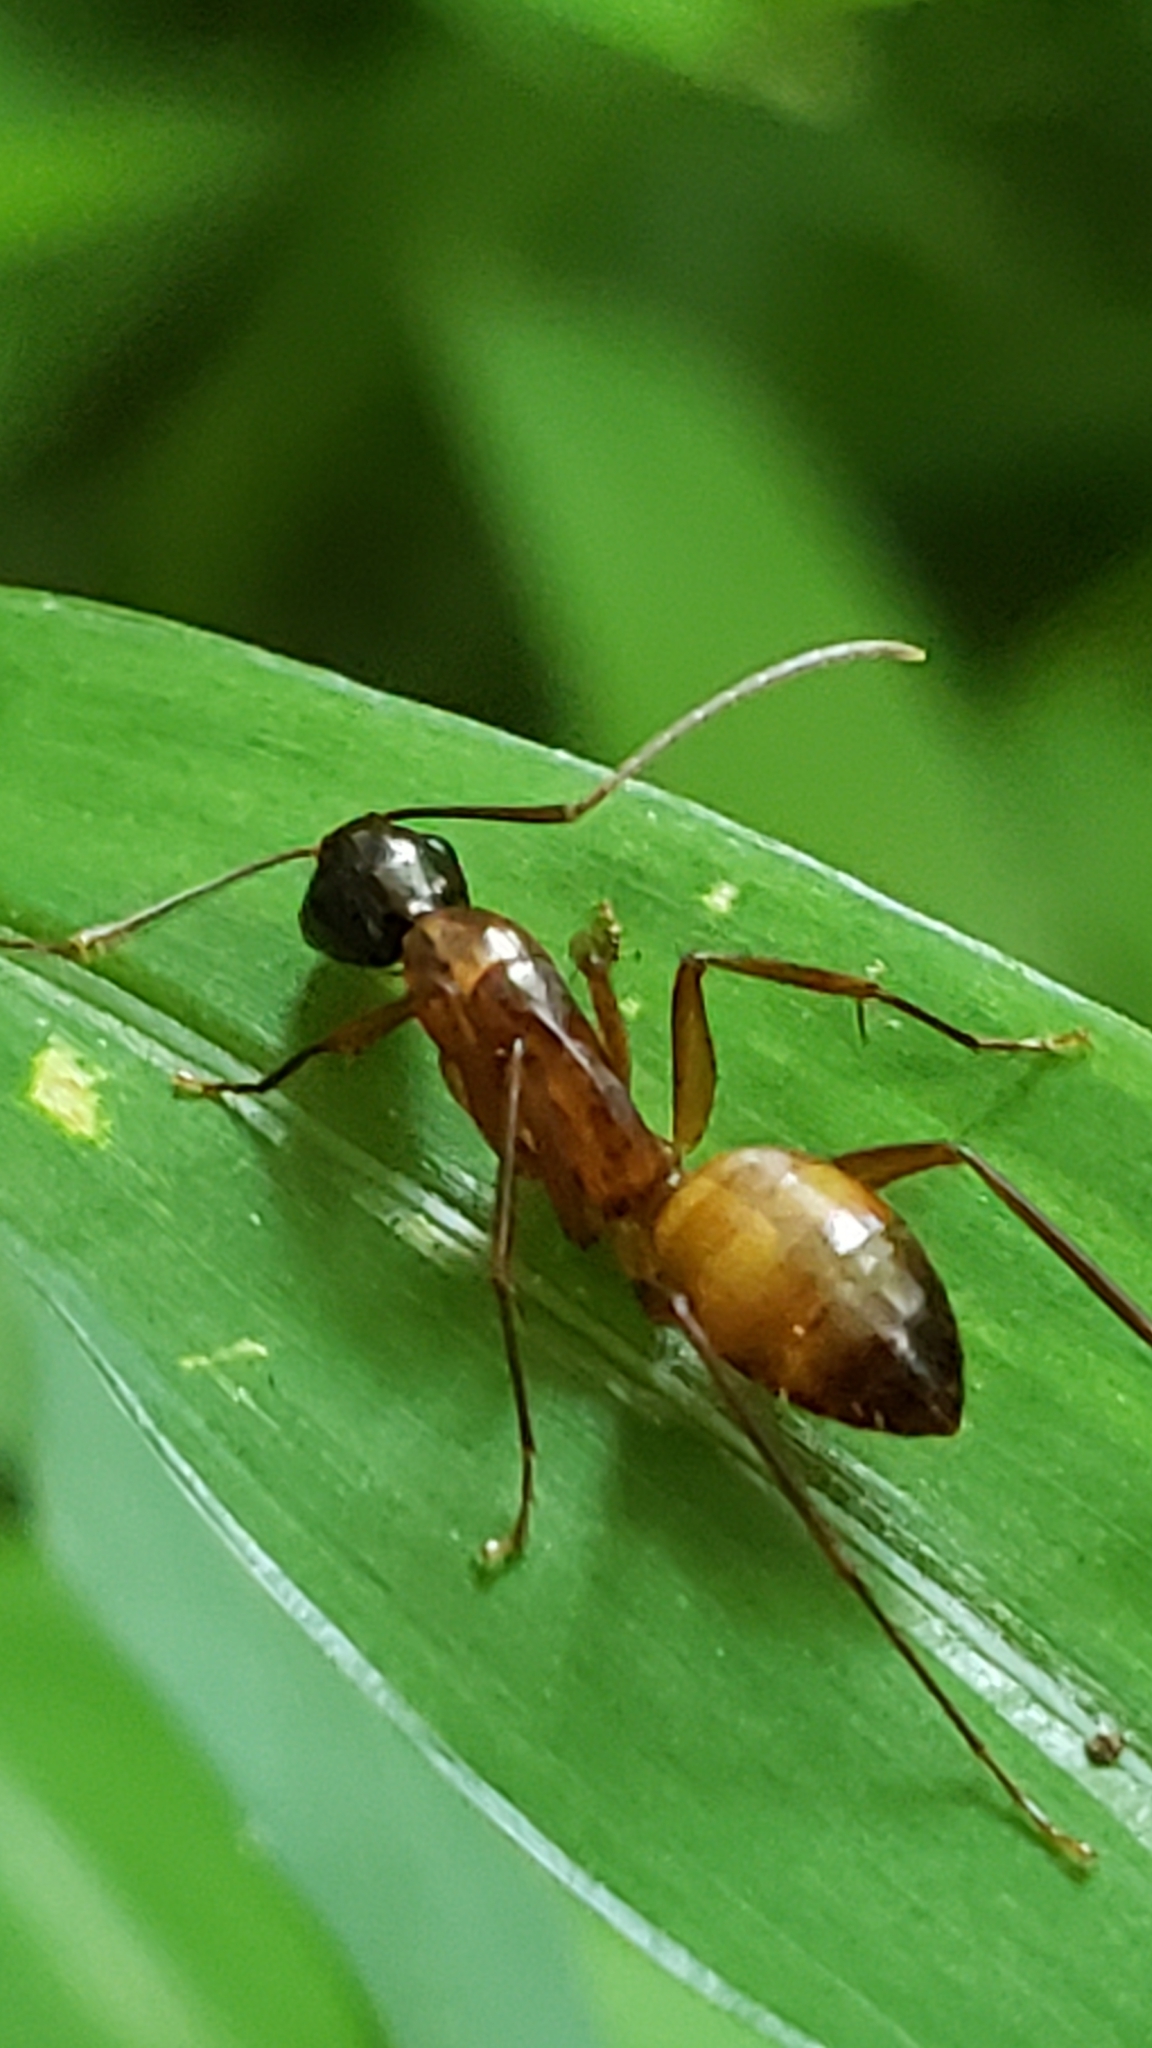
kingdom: Animalia
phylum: Arthropoda
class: Insecta
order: Hymenoptera
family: Formicidae
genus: Camponotus
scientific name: Camponotus americanus
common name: American carpenter ant
